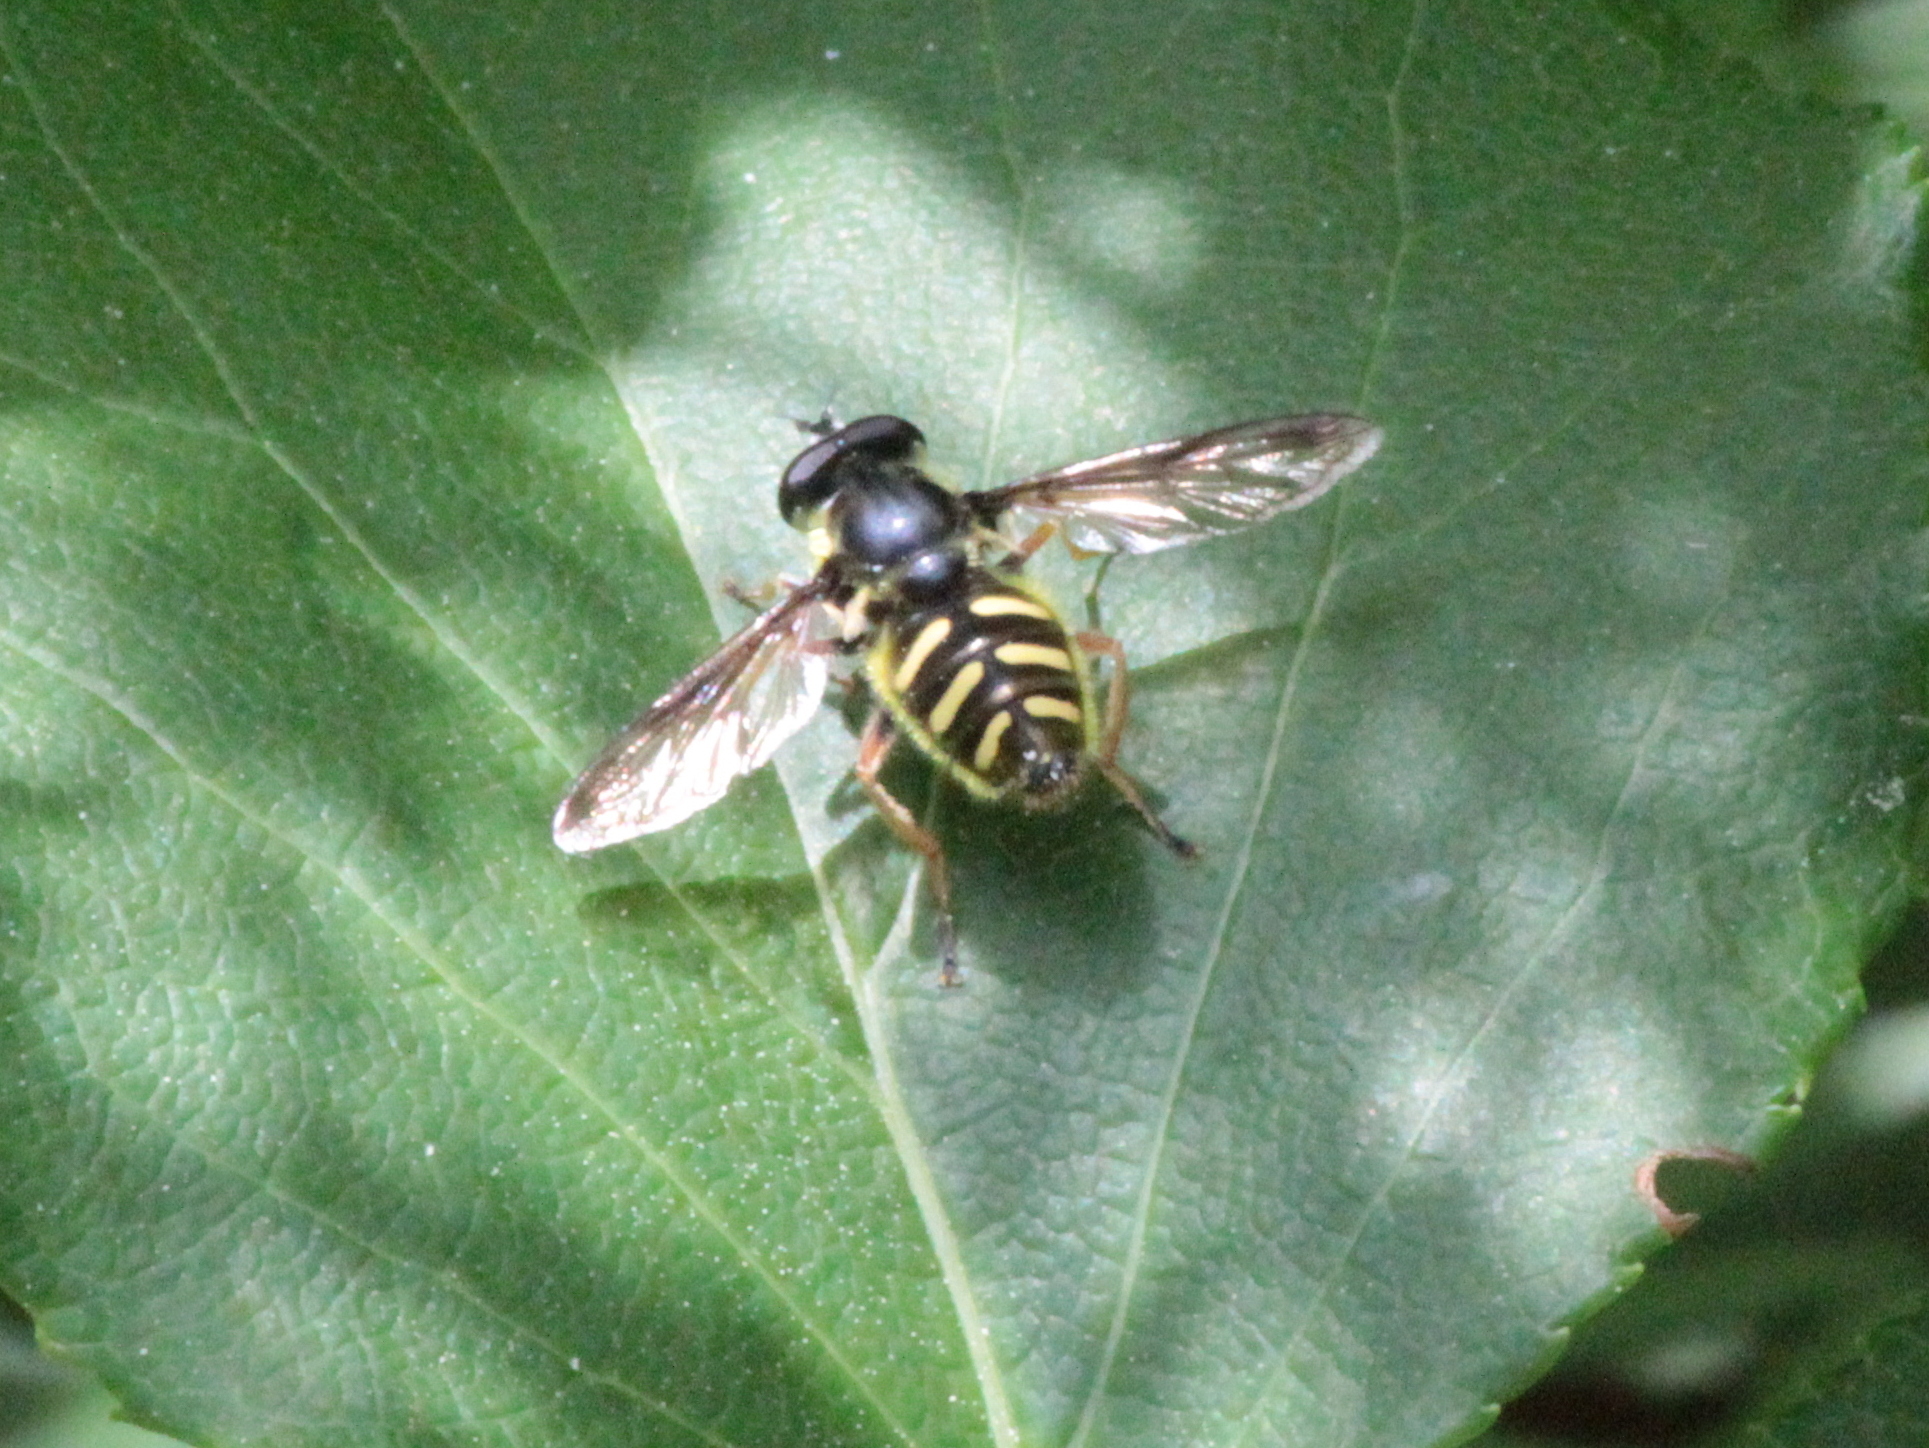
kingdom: Animalia
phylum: Arthropoda
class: Insecta
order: Diptera
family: Syrphidae
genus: Sericomyia
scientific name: Sericomyia chrysotoxoides
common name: Oblique-banded pond fly
